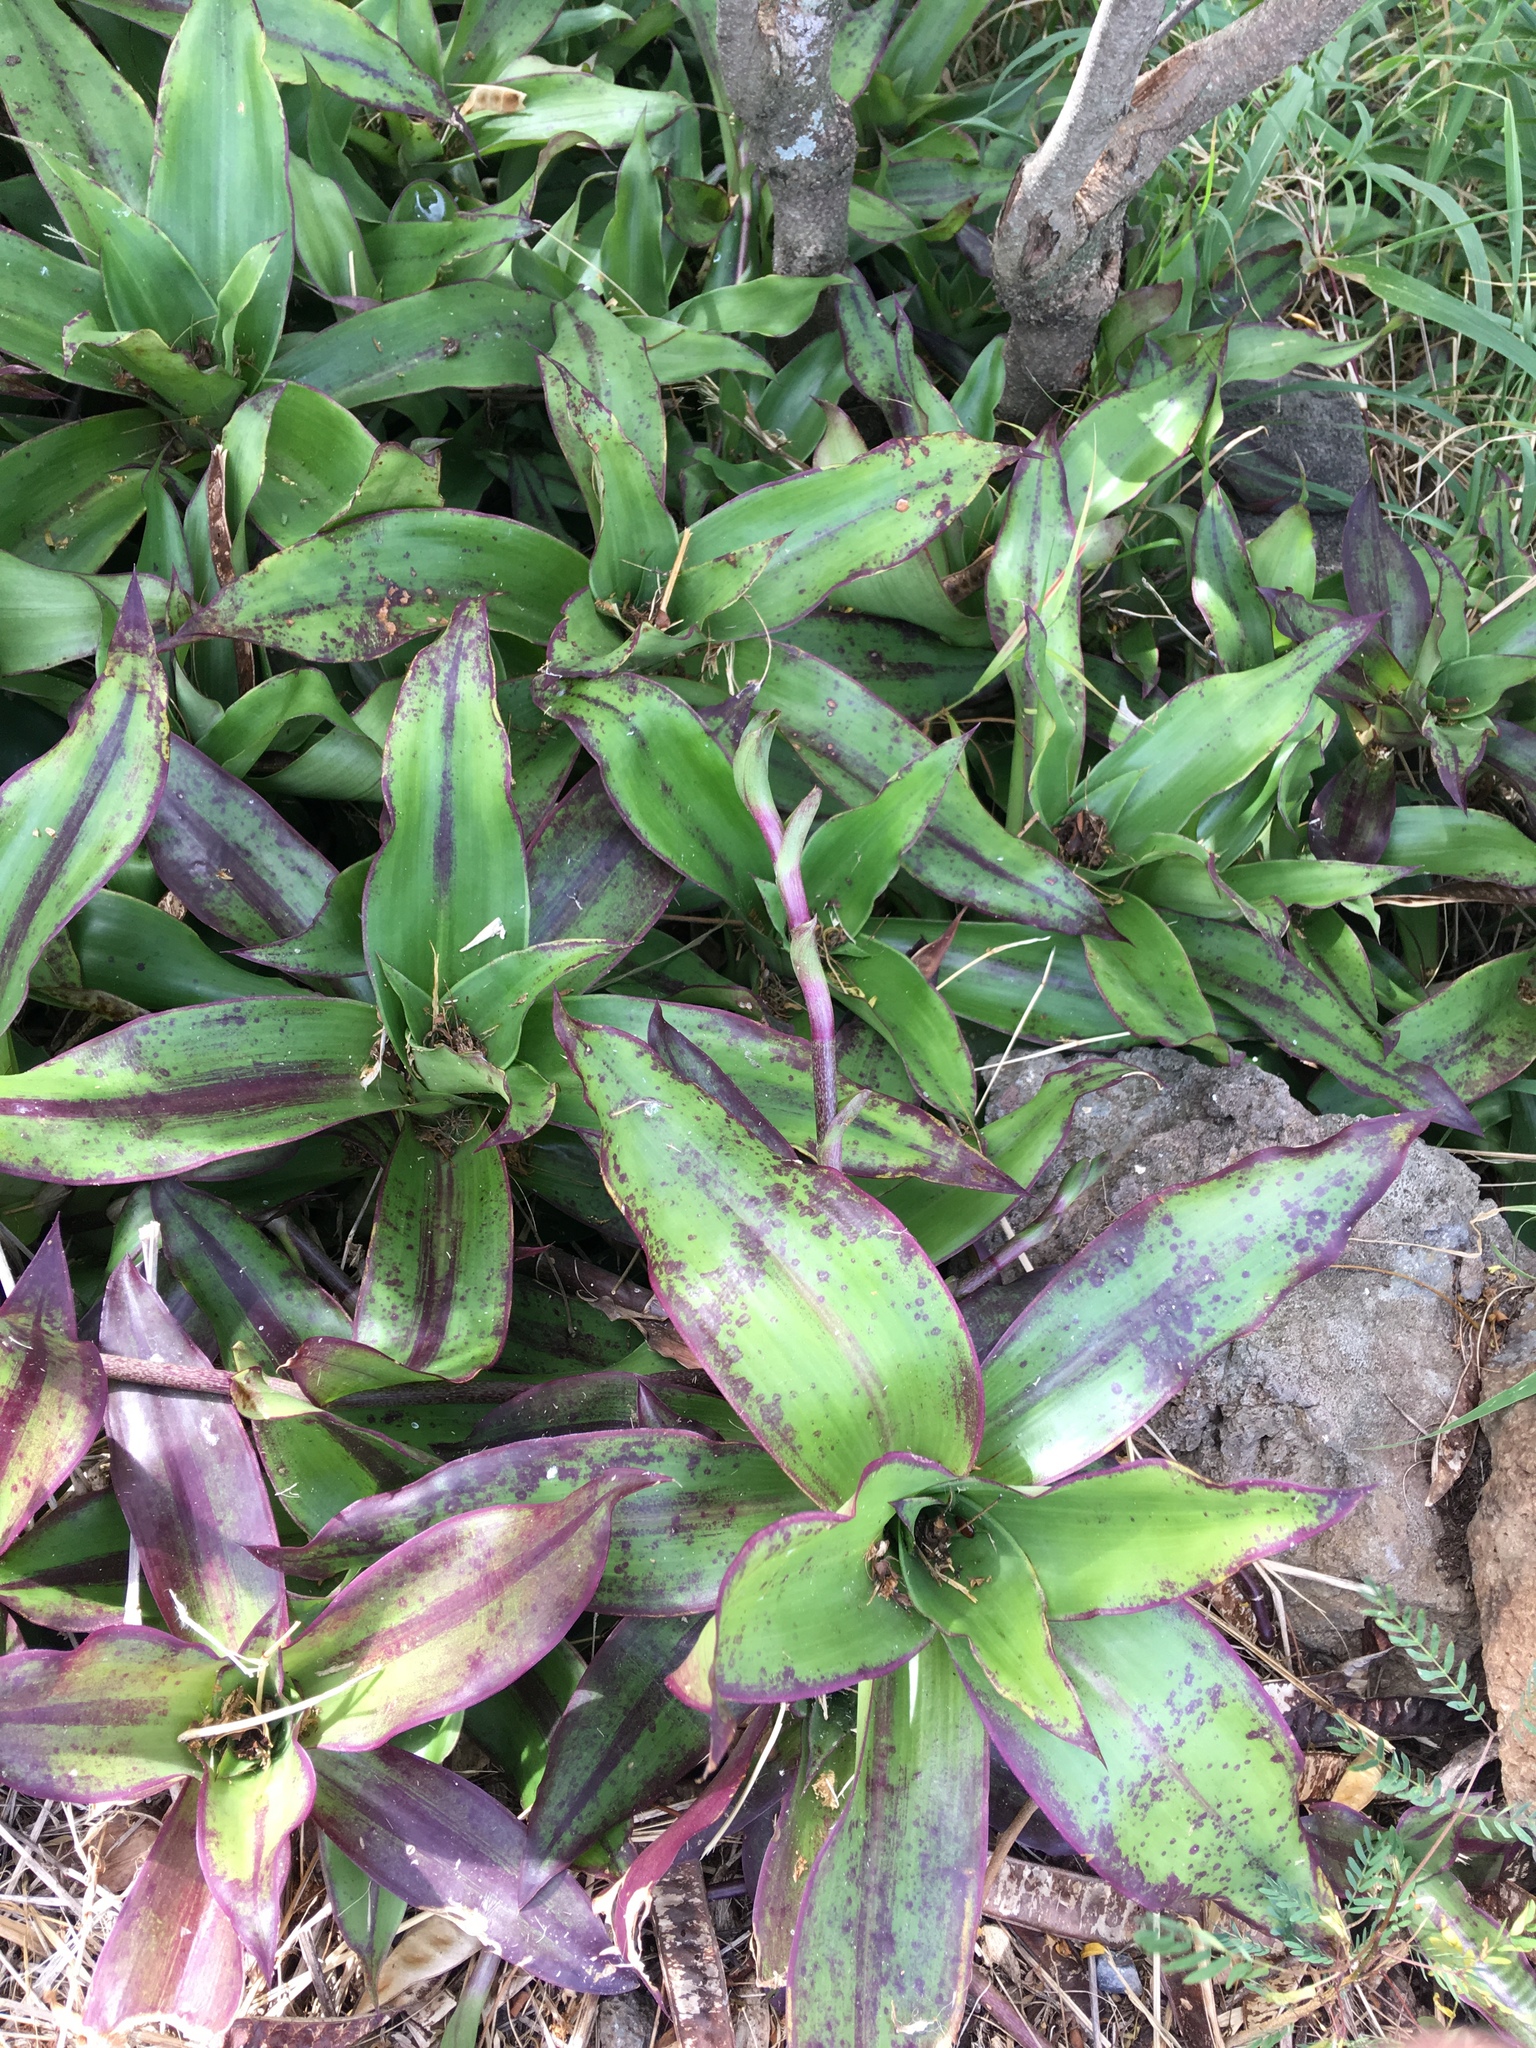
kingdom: Plantae
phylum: Tracheophyta
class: Liliopsida
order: Commelinales
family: Commelinaceae
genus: Callisia
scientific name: Callisia fragrans
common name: Basketplant
